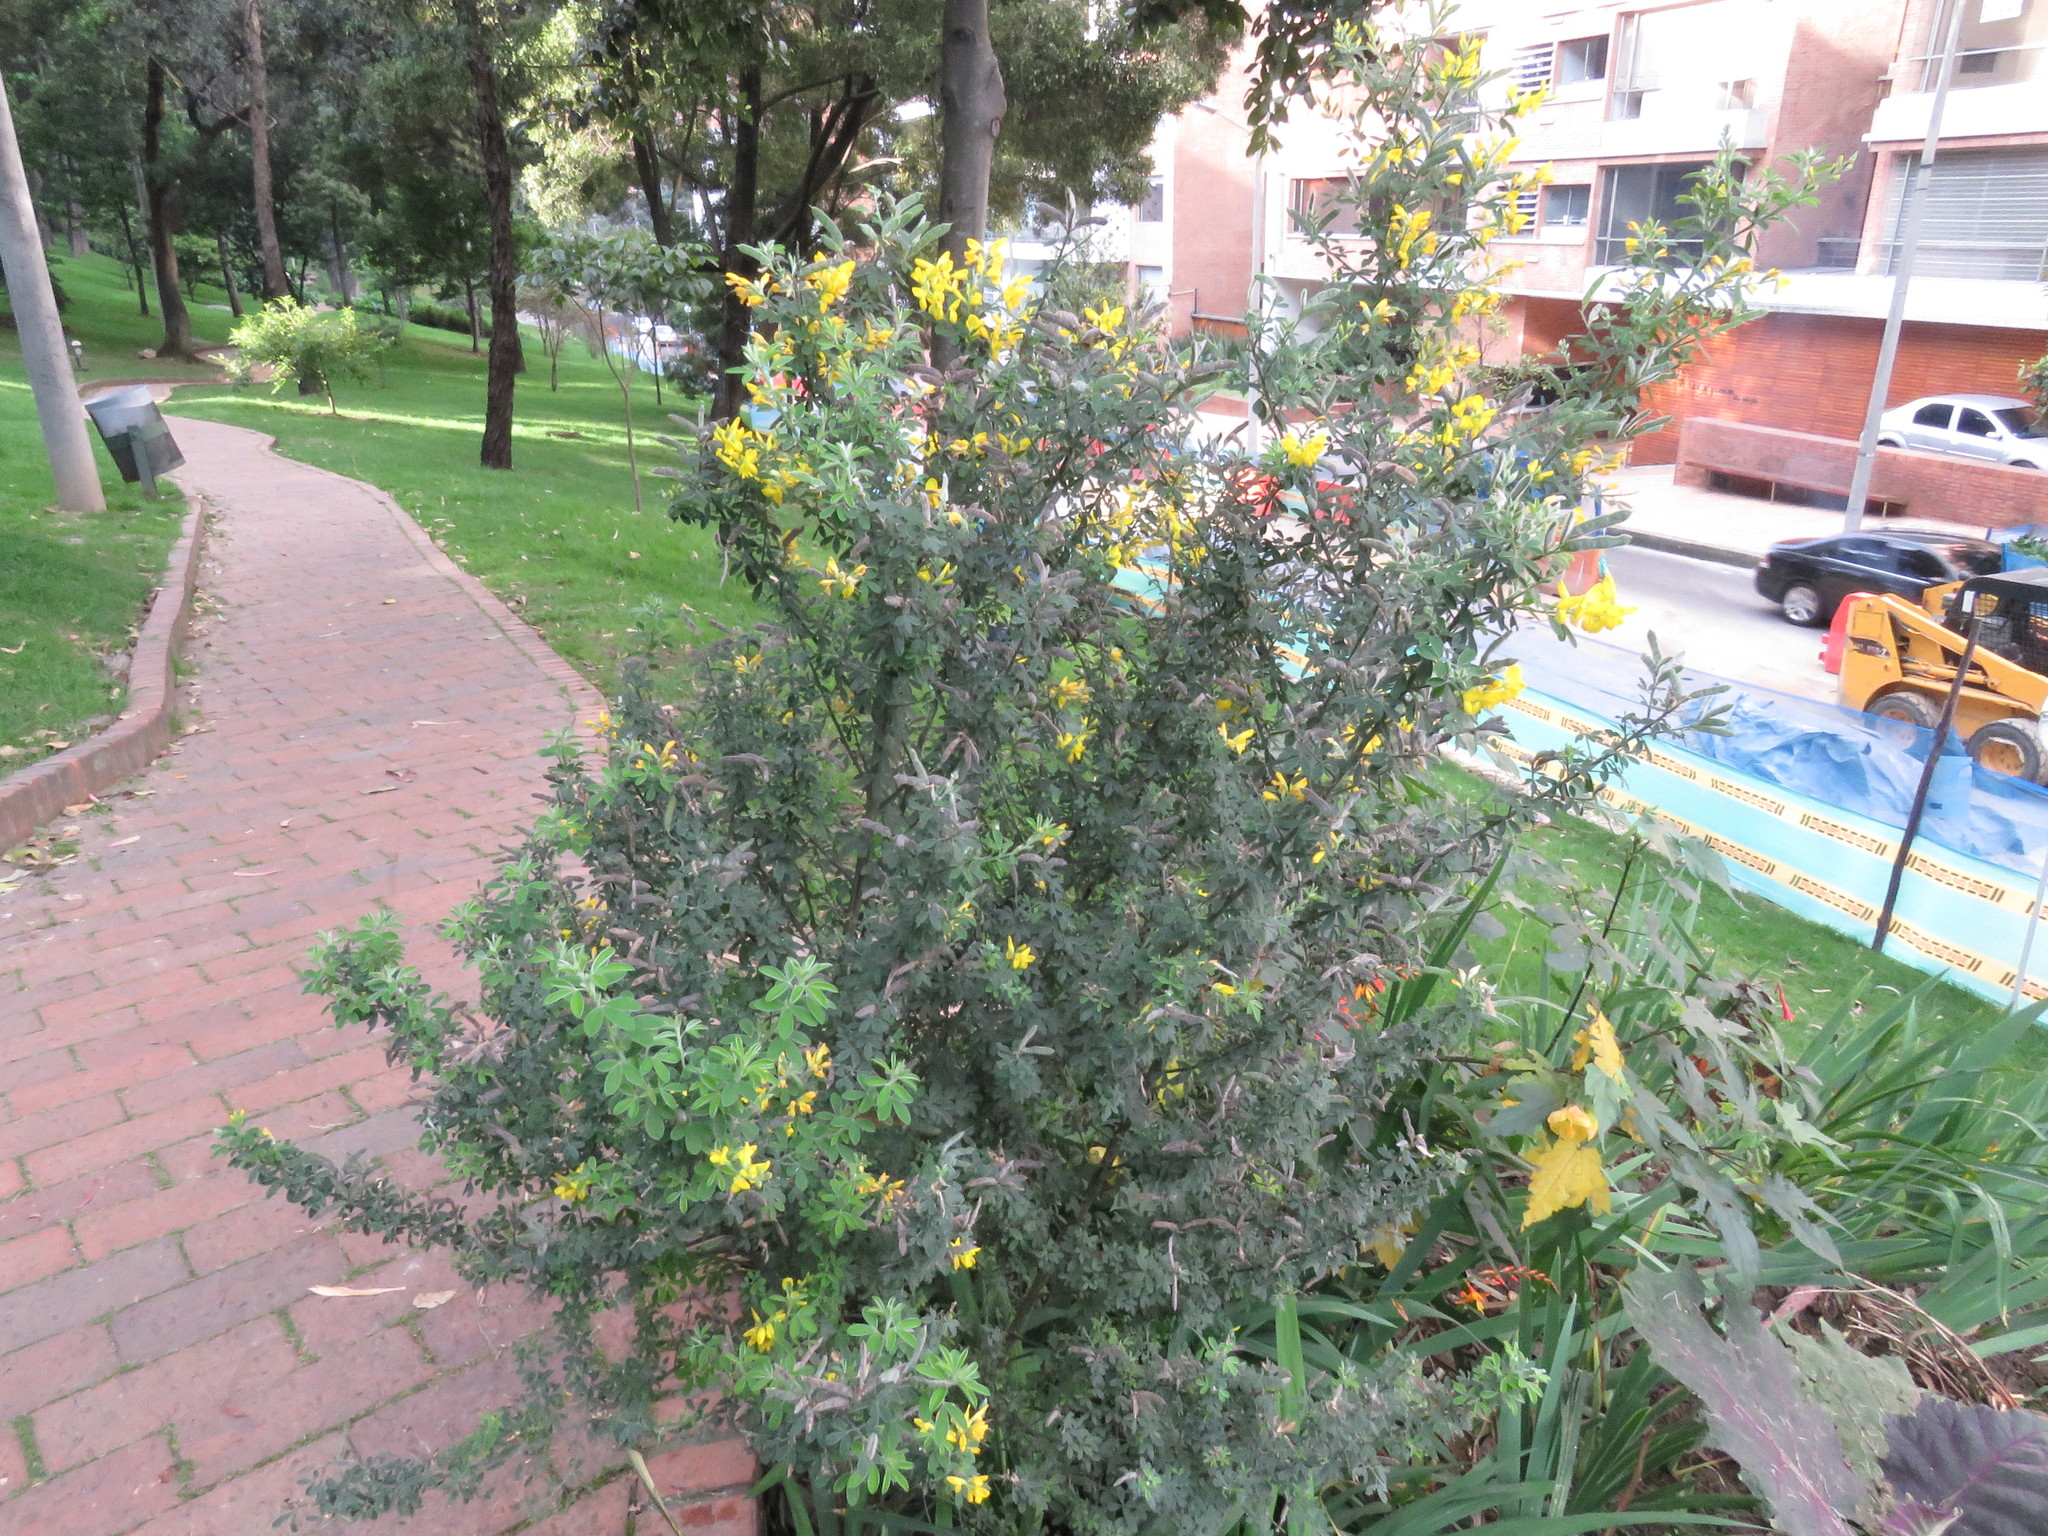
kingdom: Plantae
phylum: Tracheophyta
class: Magnoliopsida
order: Fabales
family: Fabaceae
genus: Genista
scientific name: Genista monspessulana
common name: Montpellier broom
